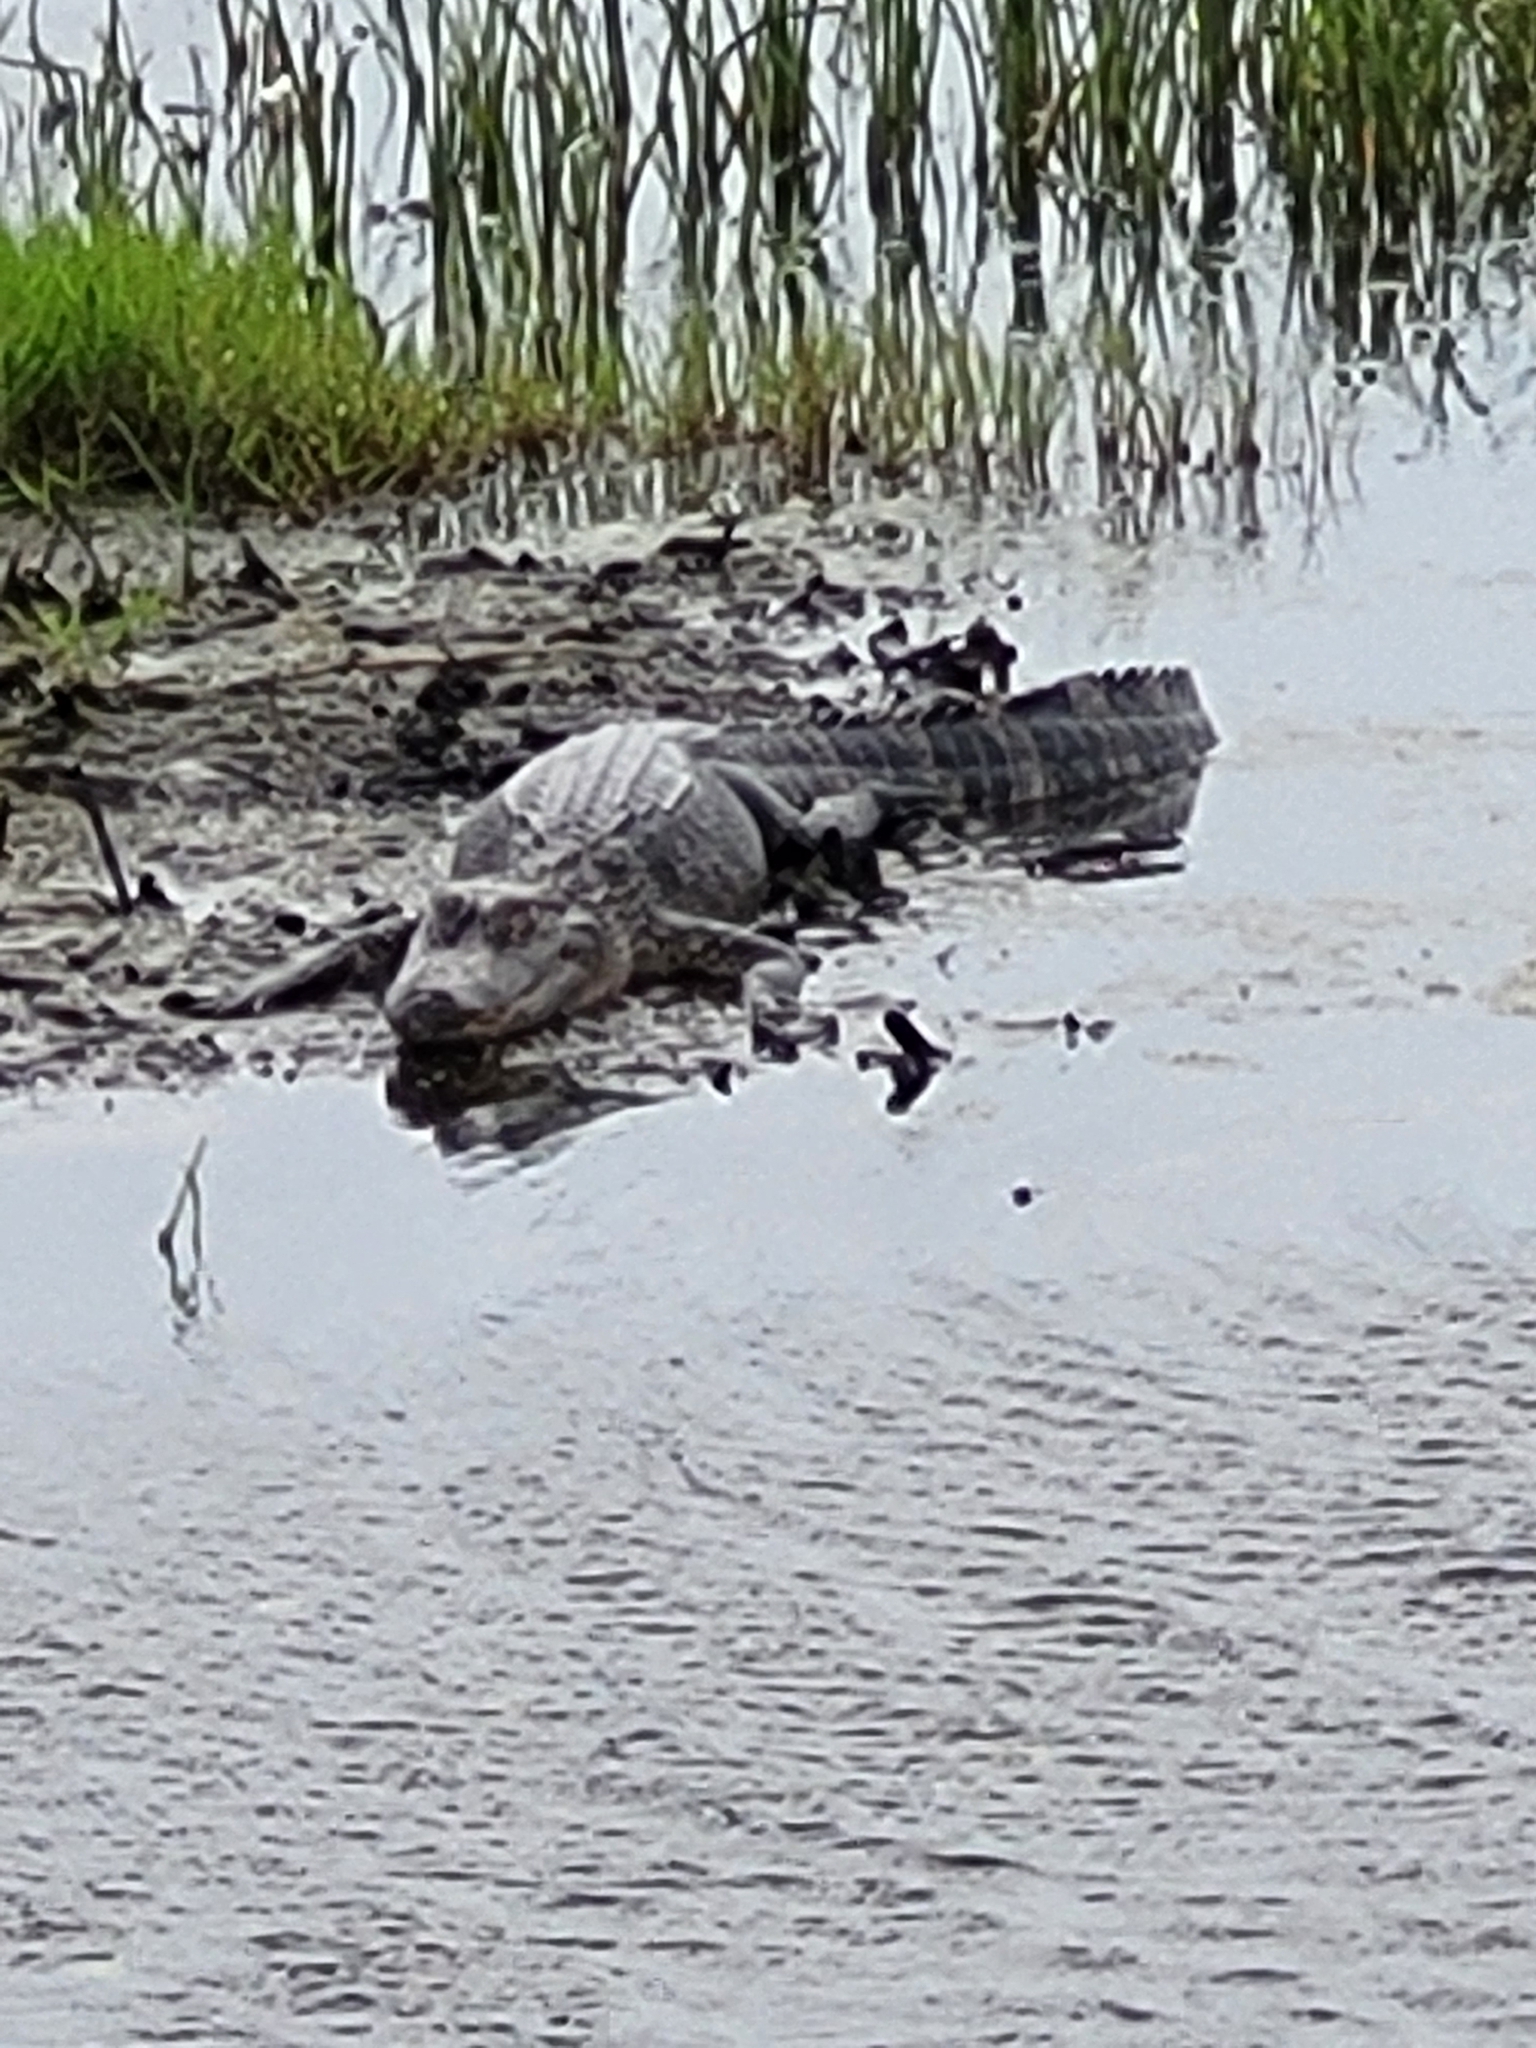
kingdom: Animalia
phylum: Chordata
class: Crocodylia
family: Alligatoridae
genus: Alligator
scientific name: Alligator mississippiensis
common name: American alligator
